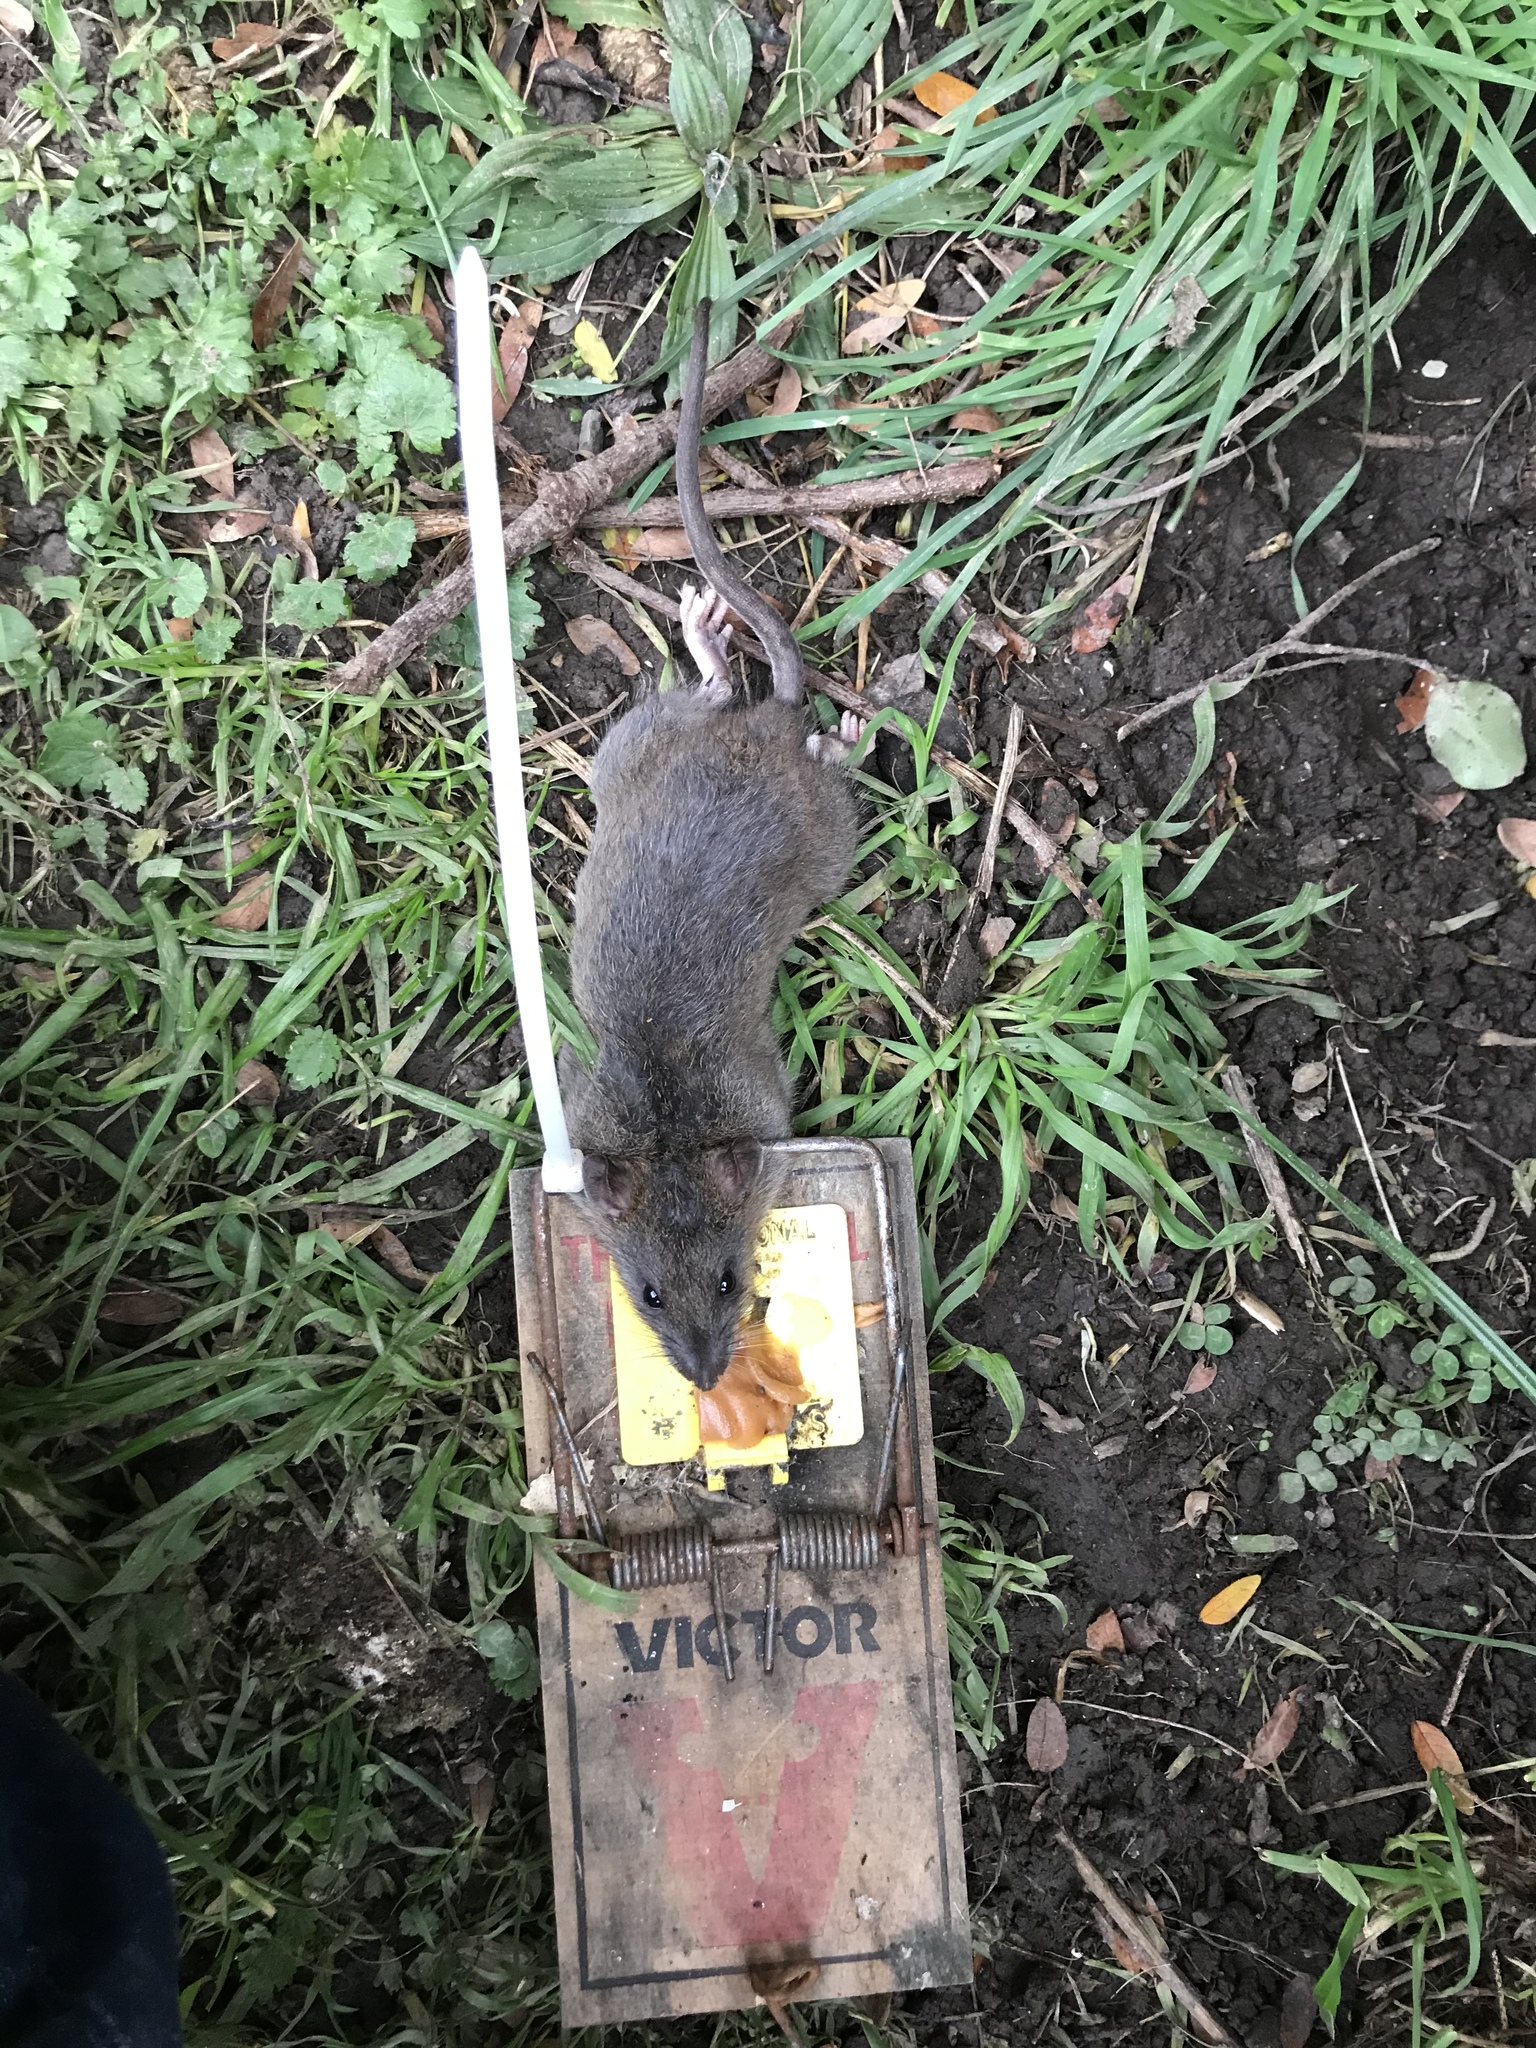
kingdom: Animalia
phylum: Chordata
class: Mammalia
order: Rodentia
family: Muridae
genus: Rattus
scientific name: Rattus norvegicus
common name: Brown rat
